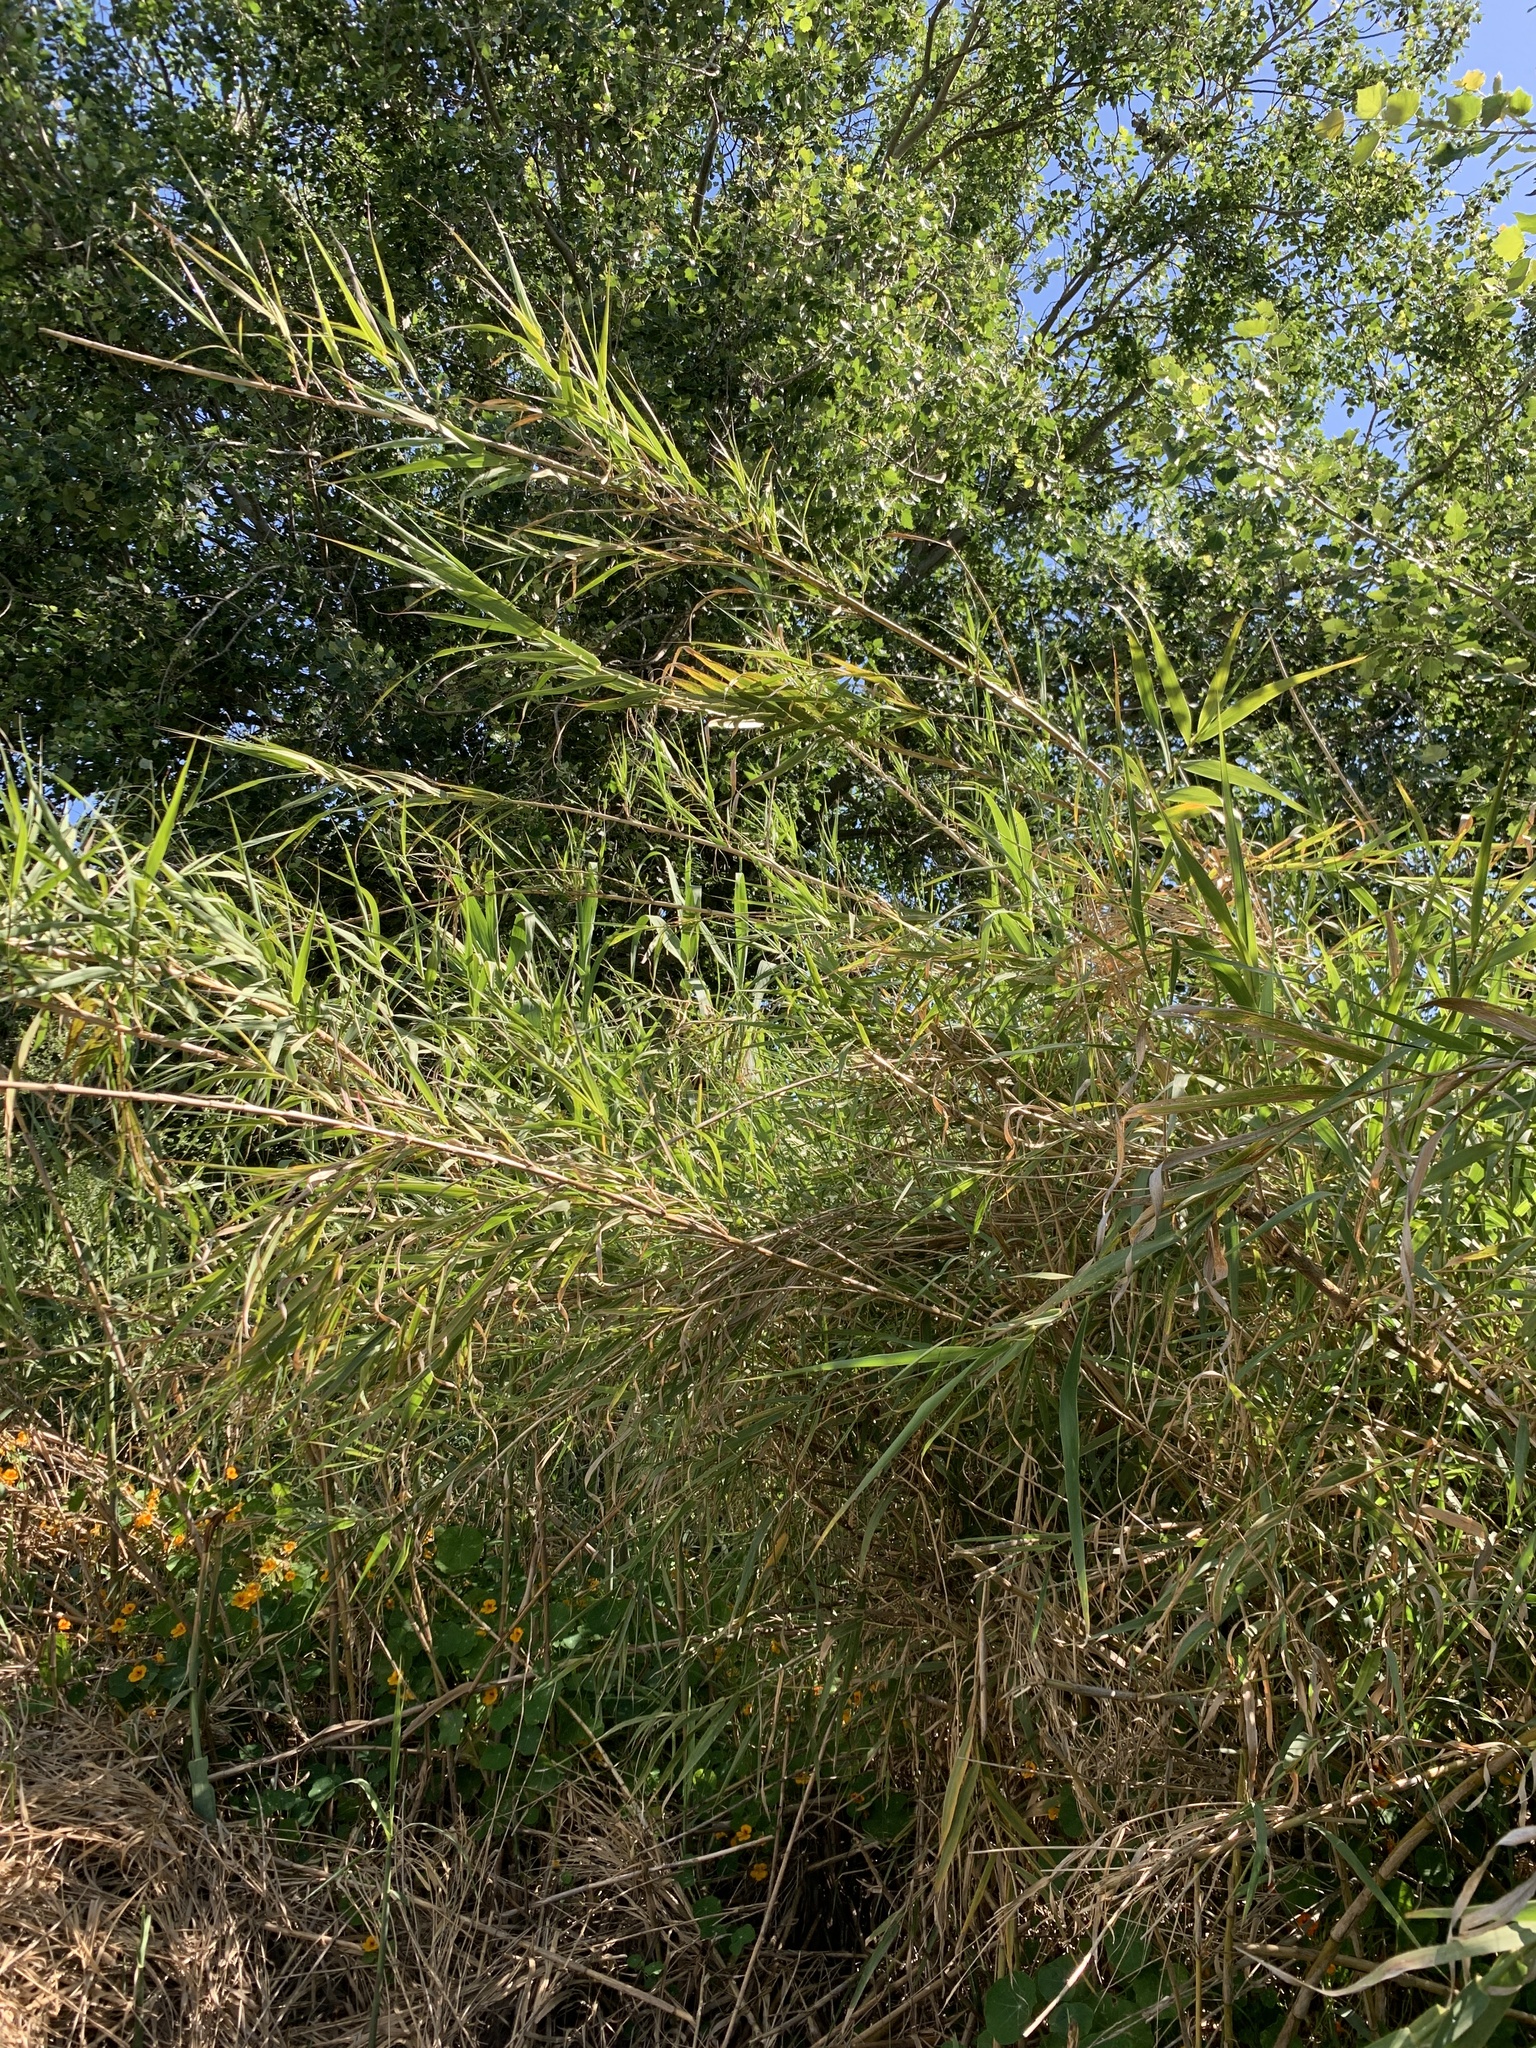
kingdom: Plantae
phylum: Tracheophyta
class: Liliopsida
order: Poales
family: Poaceae
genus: Arundo
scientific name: Arundo donax
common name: Giant reed
